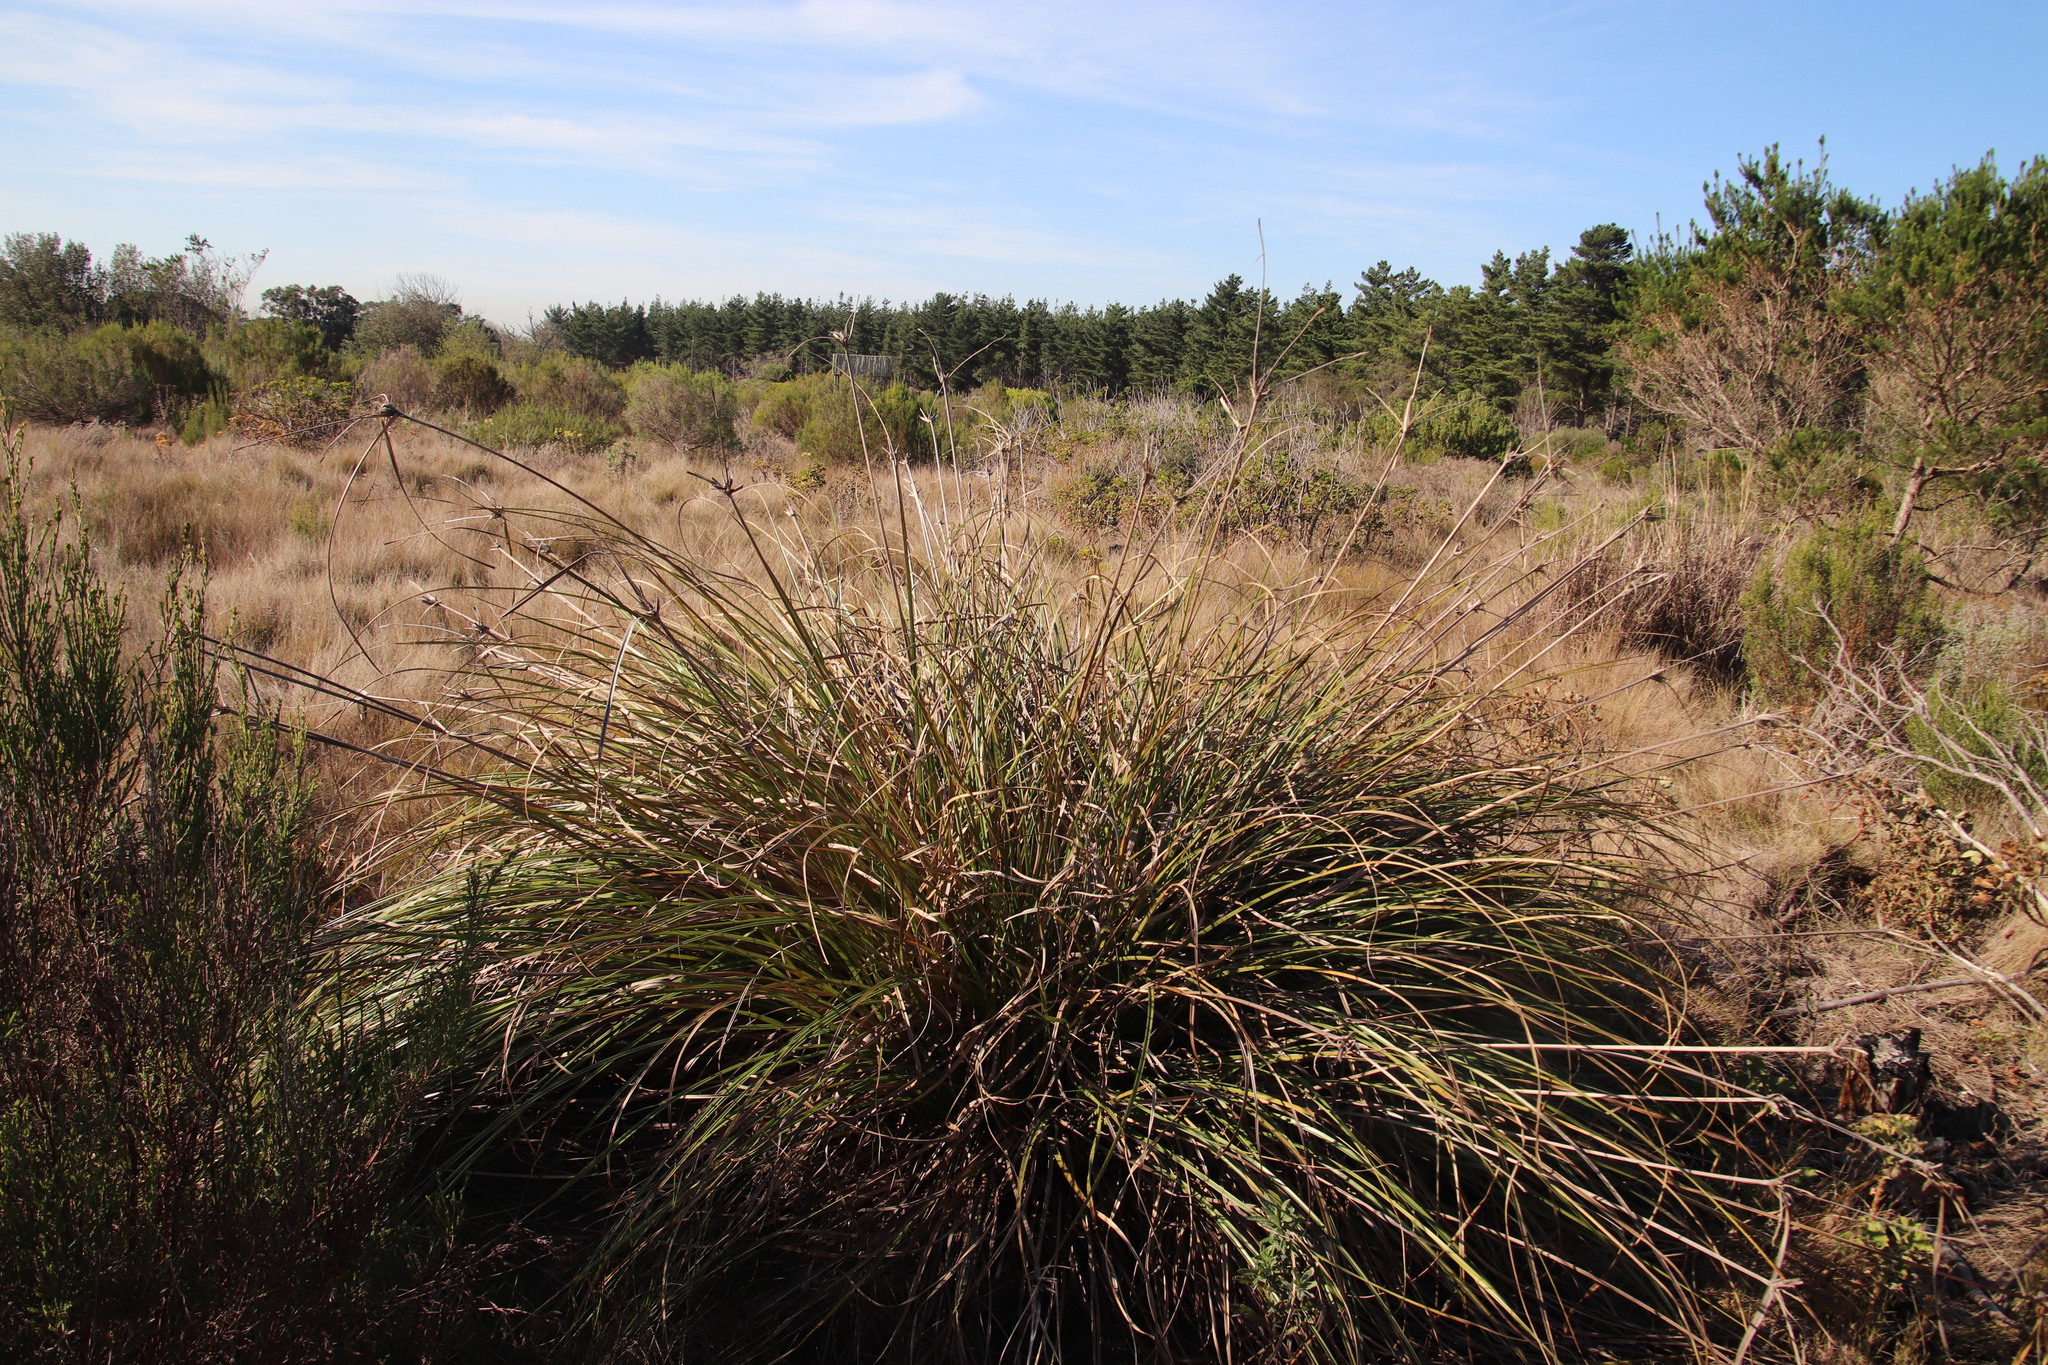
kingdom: Plantae
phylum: Tracheophyta
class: Liliopsida
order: Poales
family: Cyperaceae
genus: Cyperus
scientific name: Cyperus thunbergii
